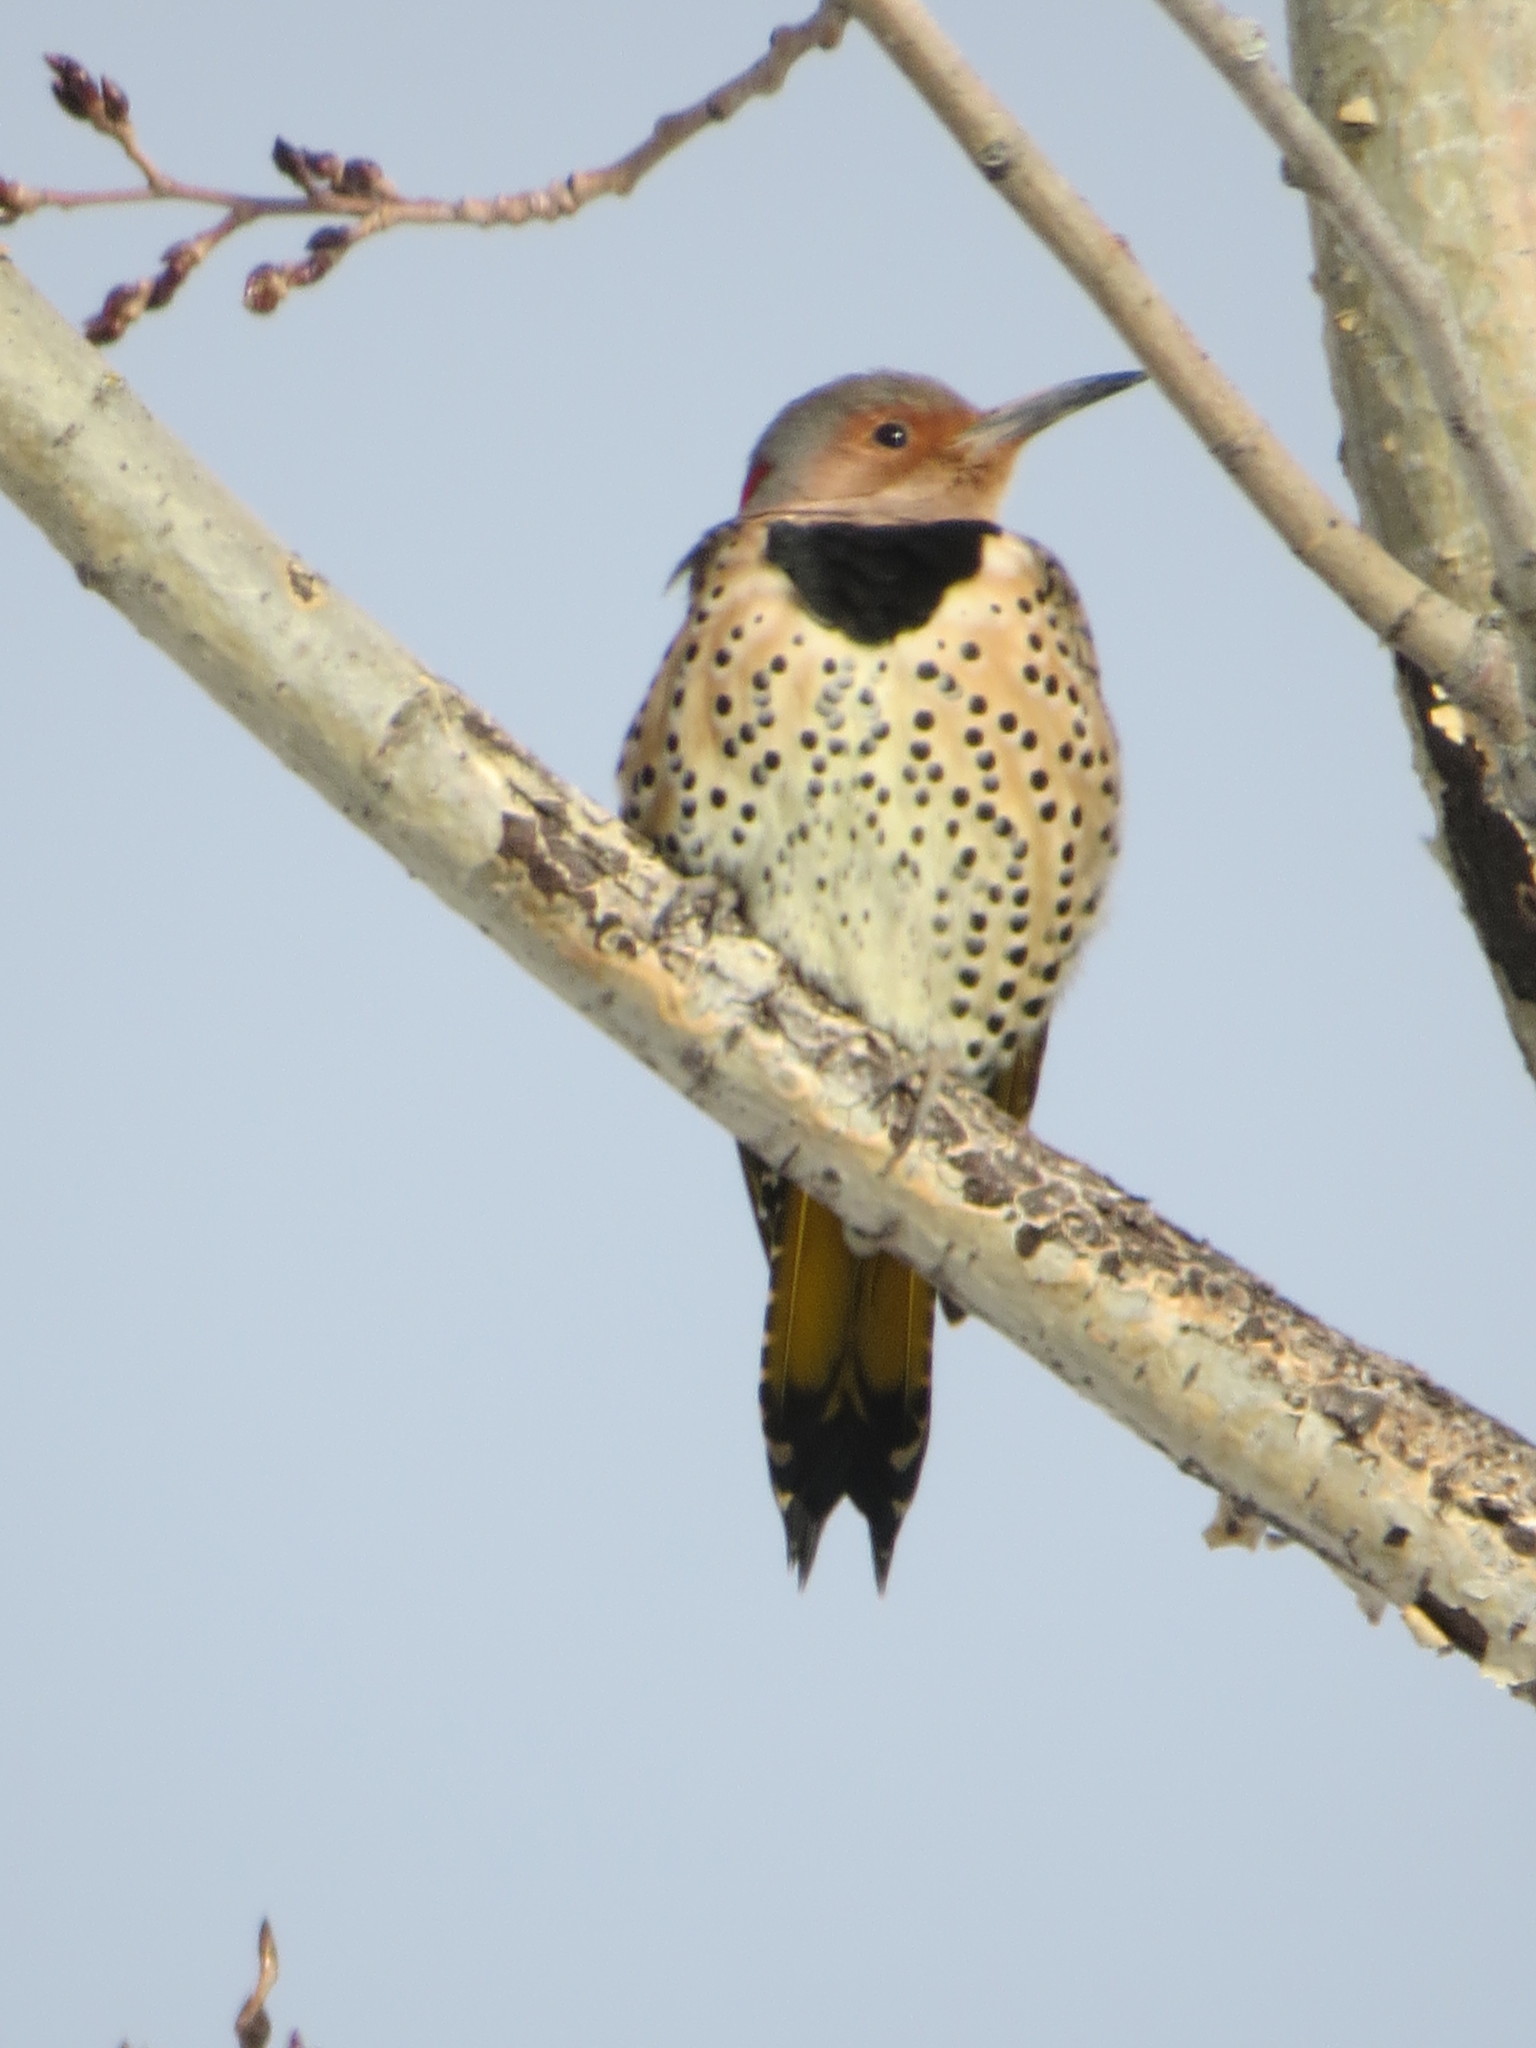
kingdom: Animalia
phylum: Chordata
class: Aves
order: Piciformes
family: Picidae
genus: Colaptes
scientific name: Colaptes auratus
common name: Northern flicker
